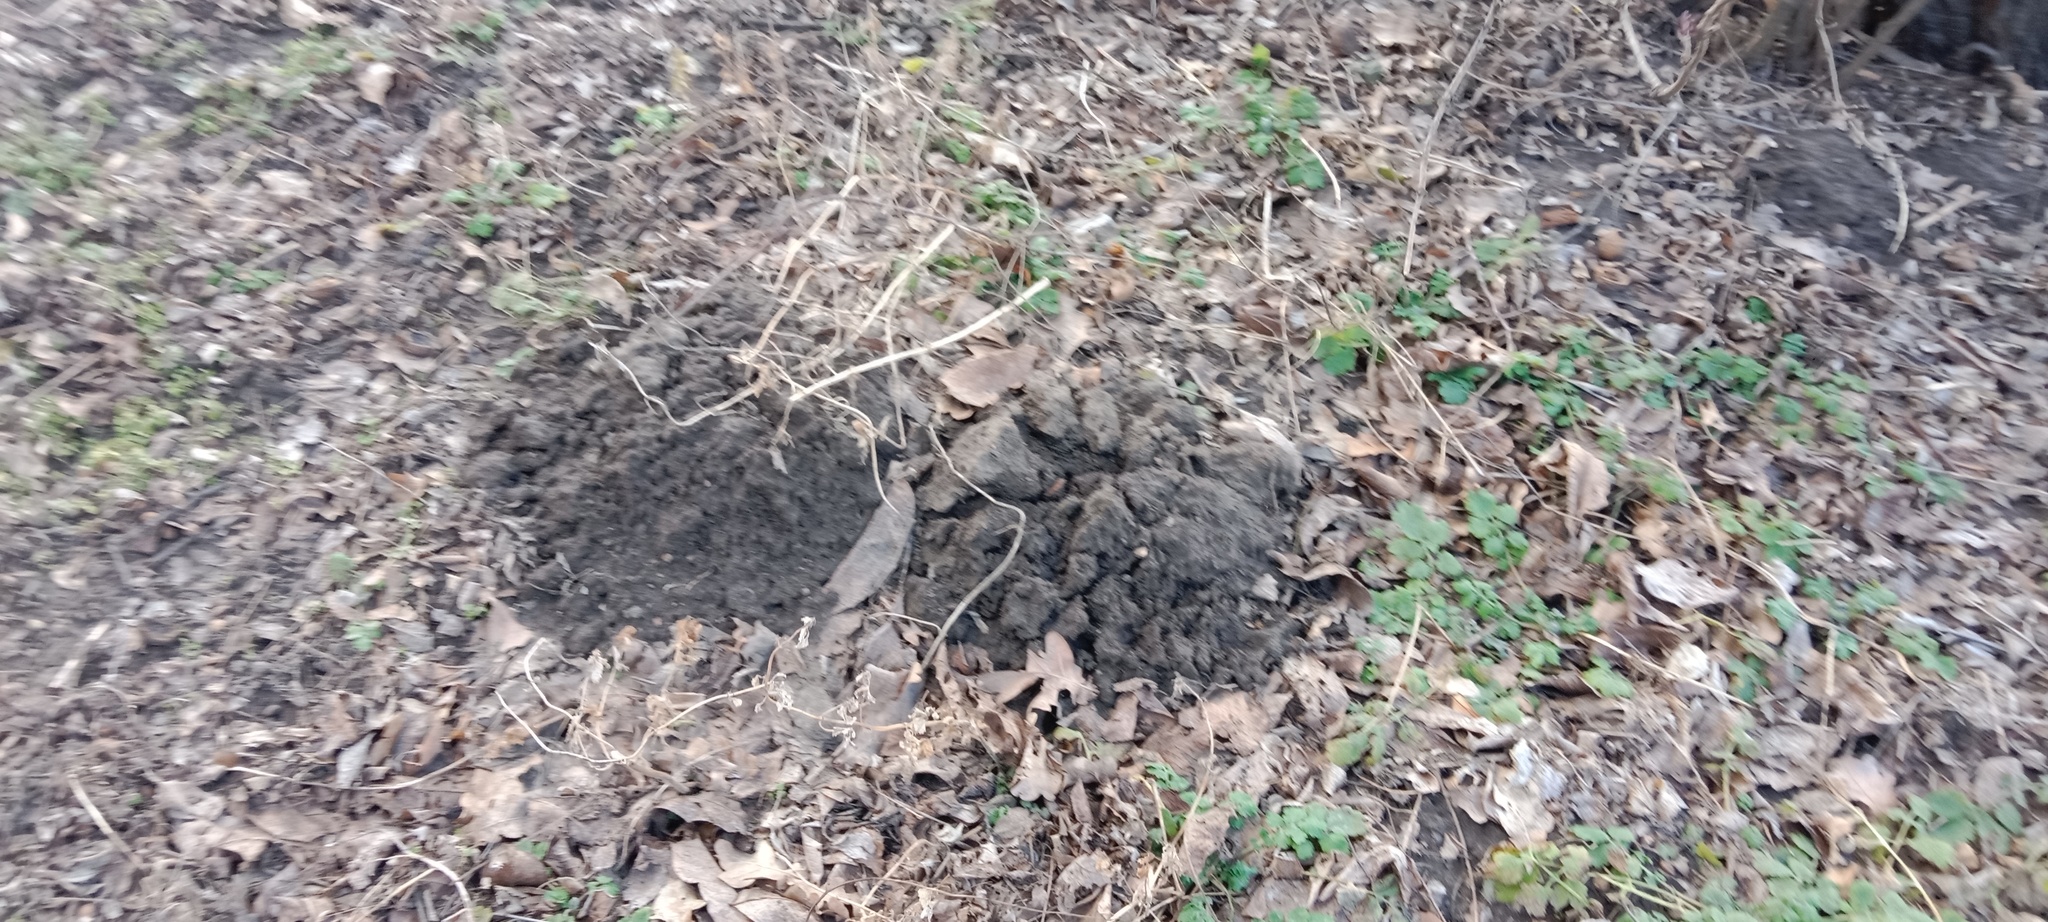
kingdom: Animalia
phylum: Chordata
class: Mammalia
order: Soricomorpha
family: Talpidae
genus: Talpa
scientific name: Talpa europaea
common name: European mole
